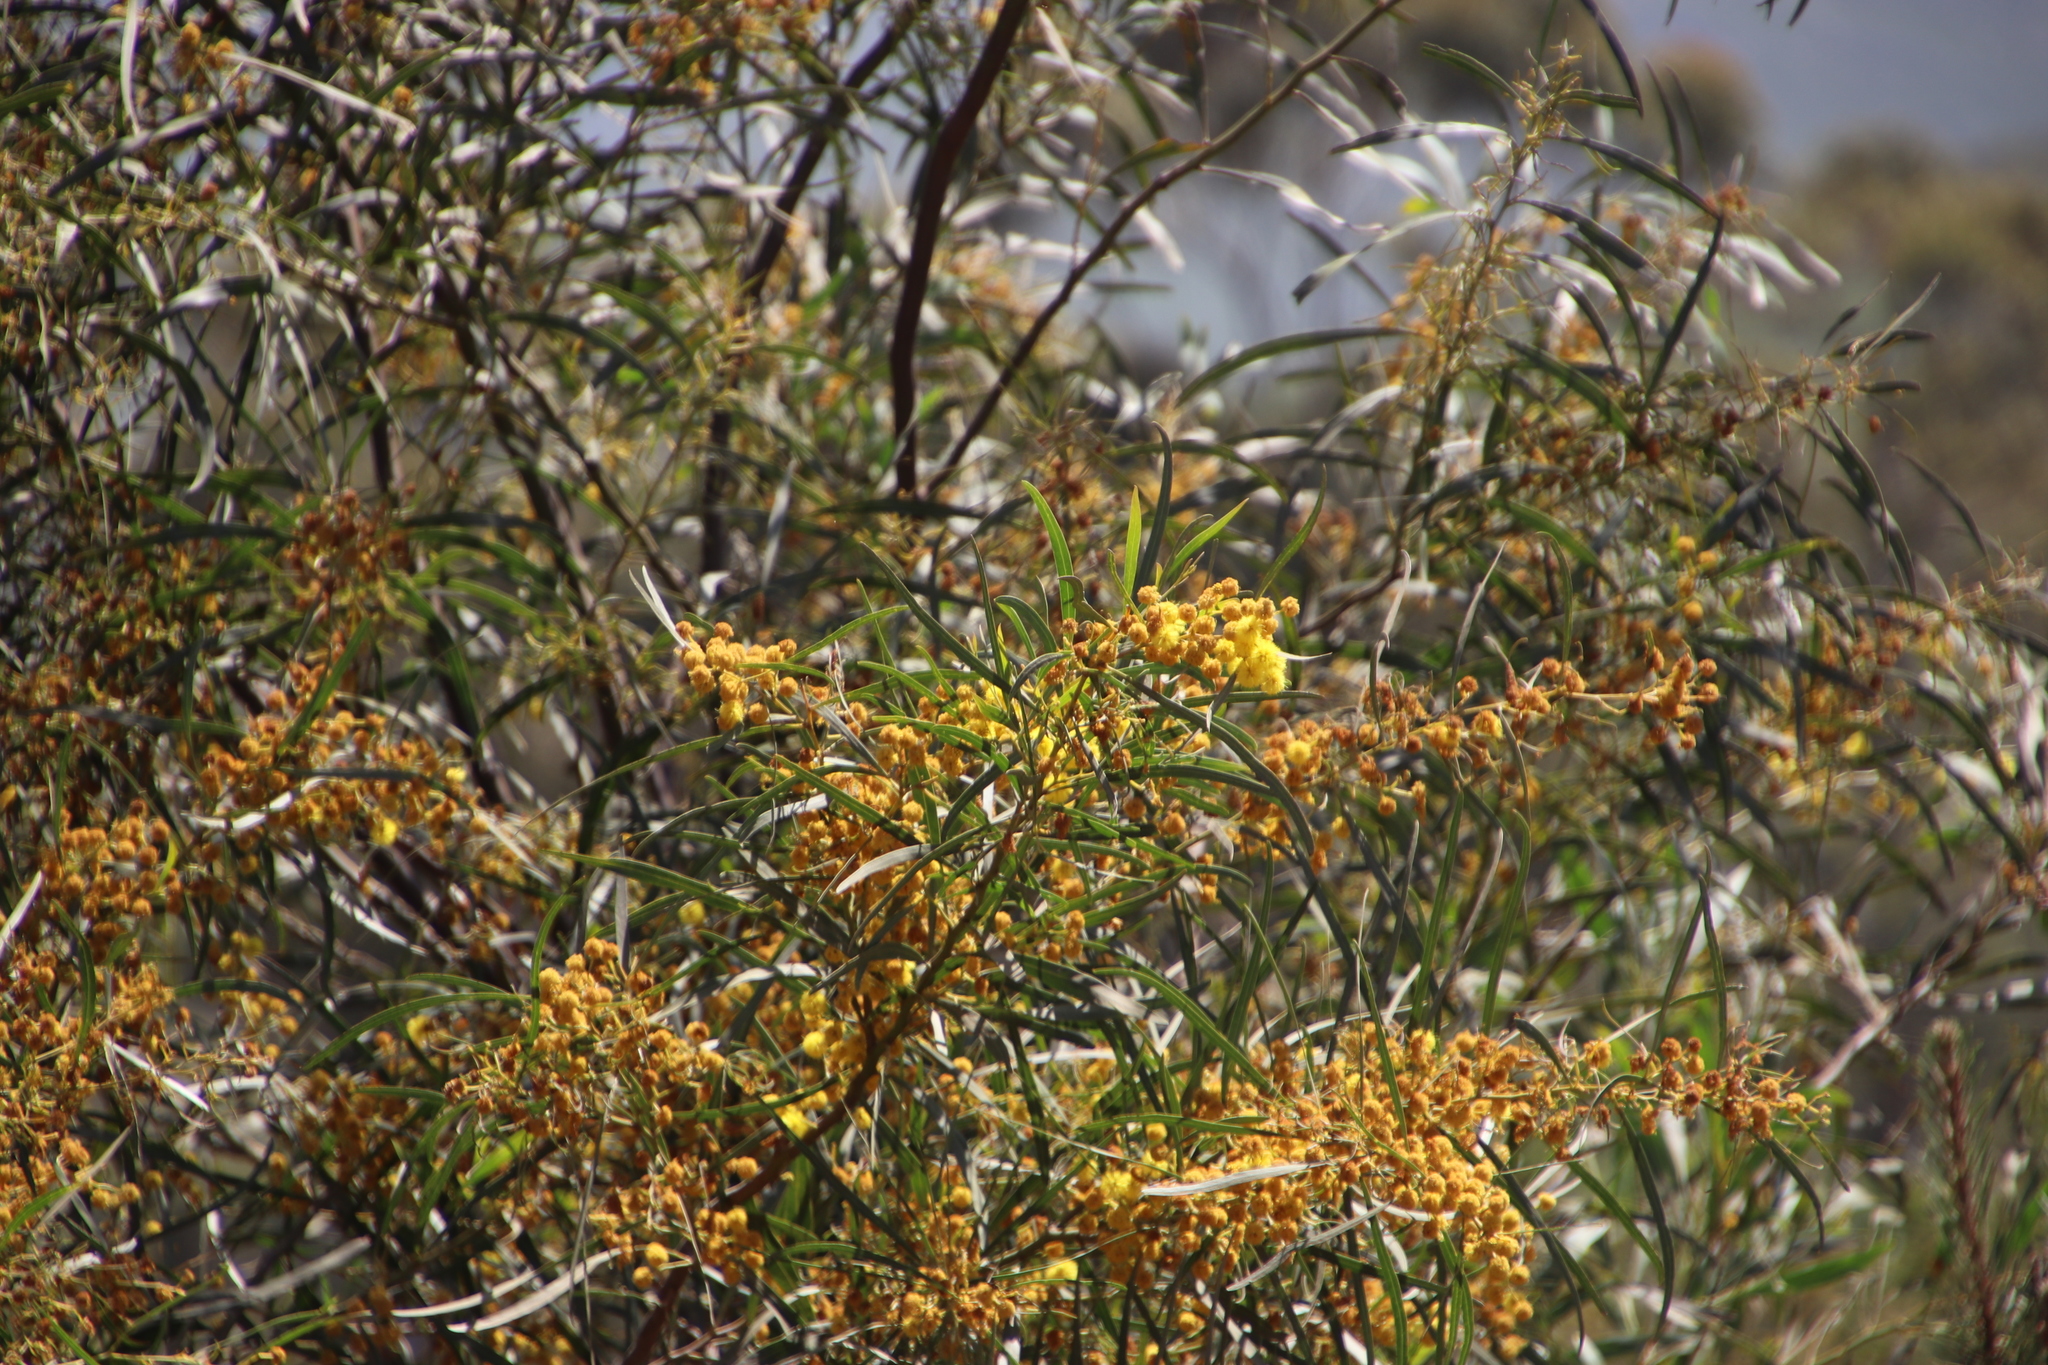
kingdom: Plantae
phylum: Tracheophyta
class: Magnoliopsida
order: Fabales
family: Fabaceae
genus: Acacia
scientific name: Acacia saligna
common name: Orange wattle
